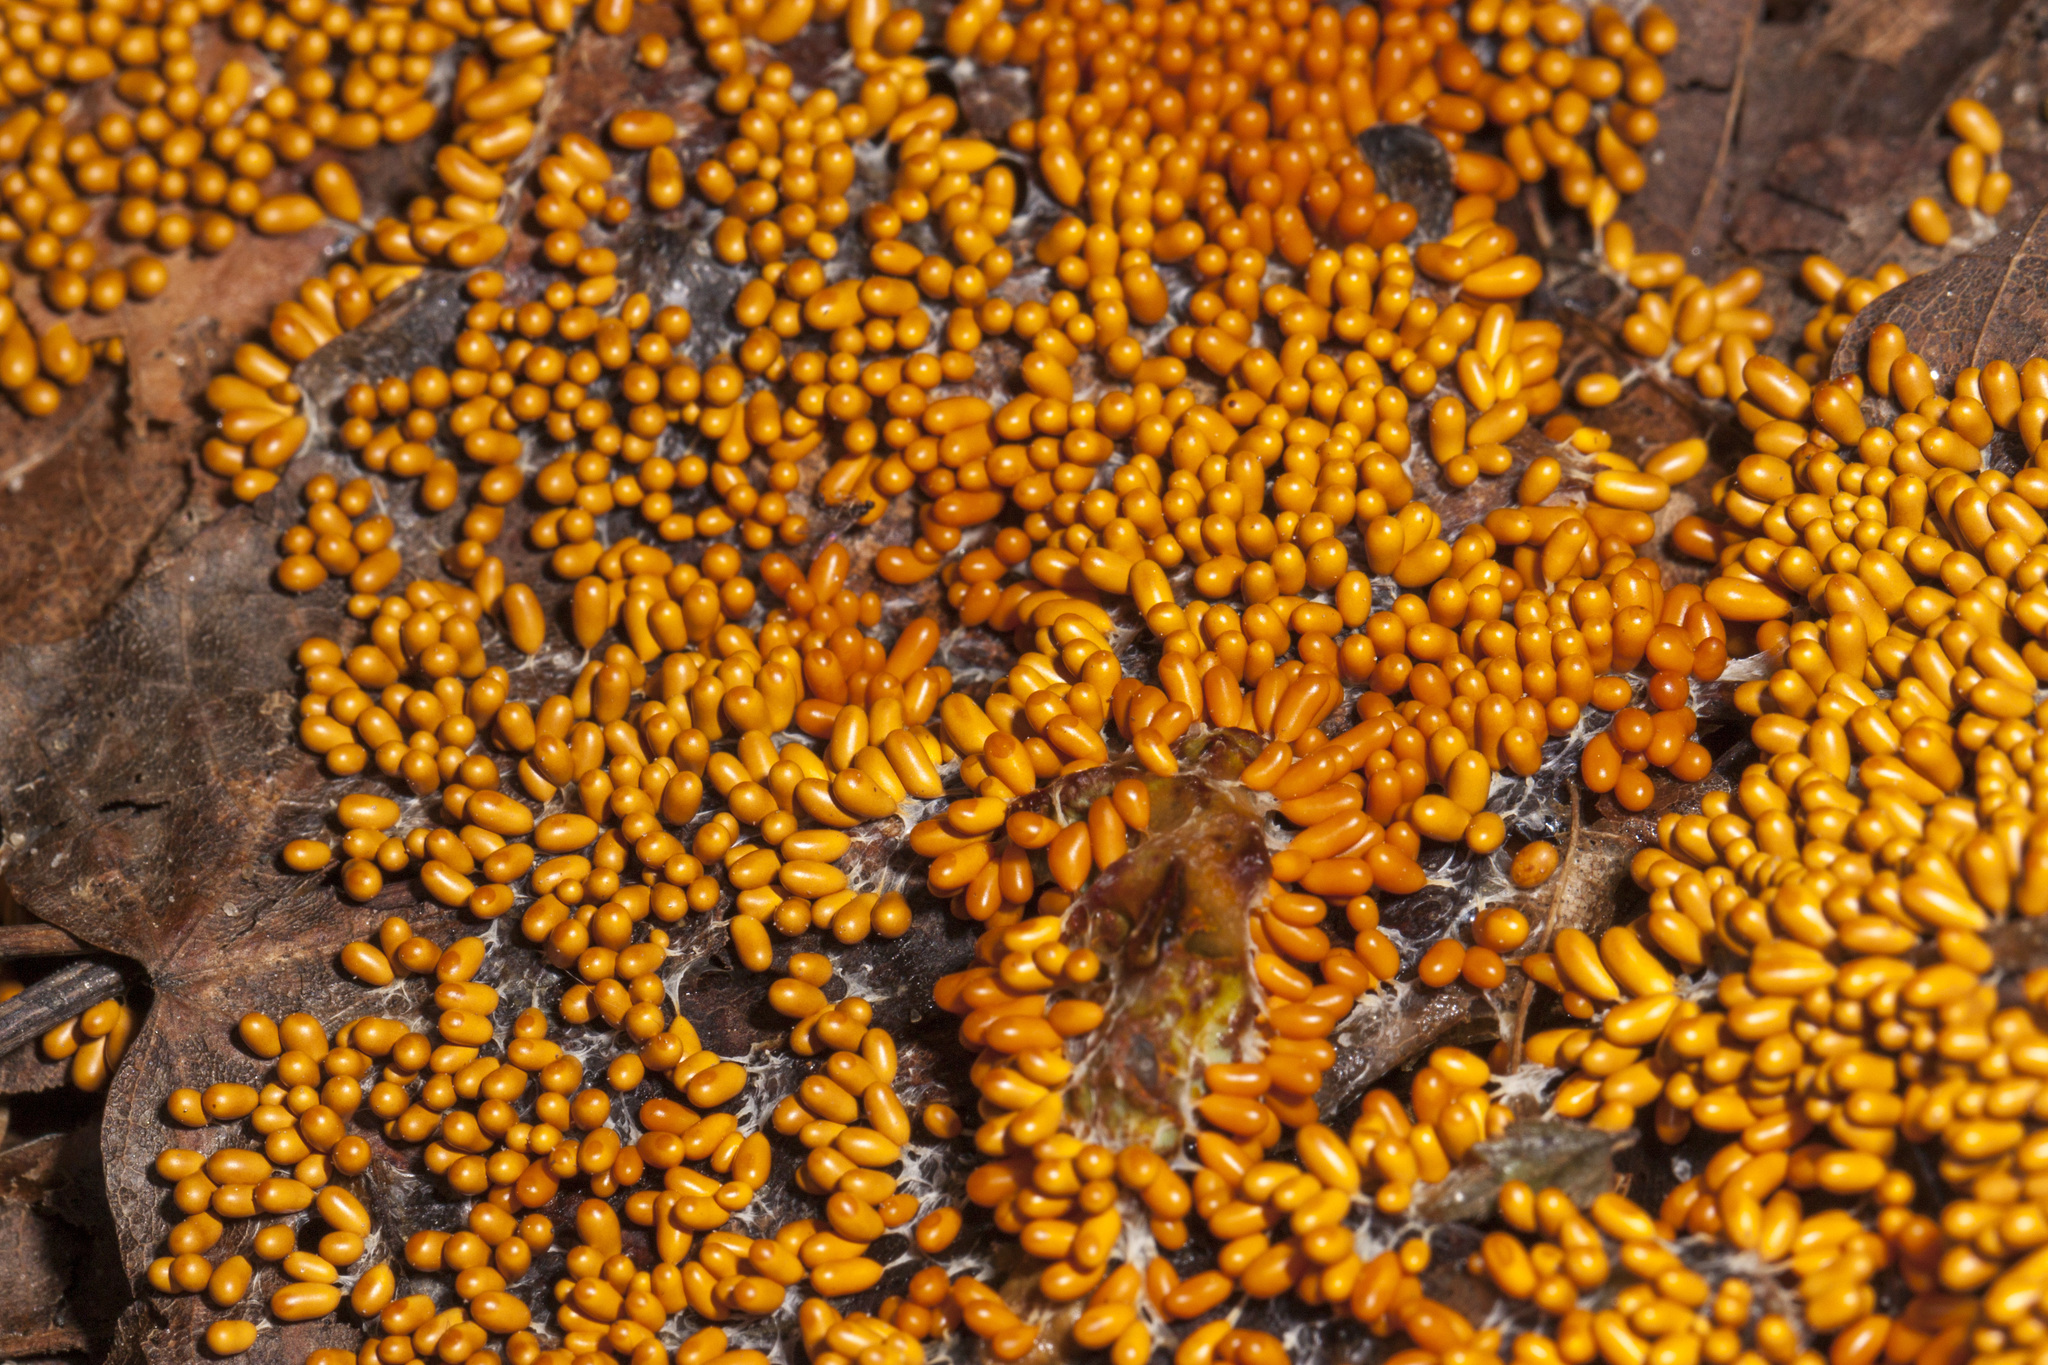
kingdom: Protozoa
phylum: Mycetozoa
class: Myxomycetes
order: Physarales
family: Physaraceae
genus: Leocarpus
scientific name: Leocarpus fragilis
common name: Insect-egg slime
